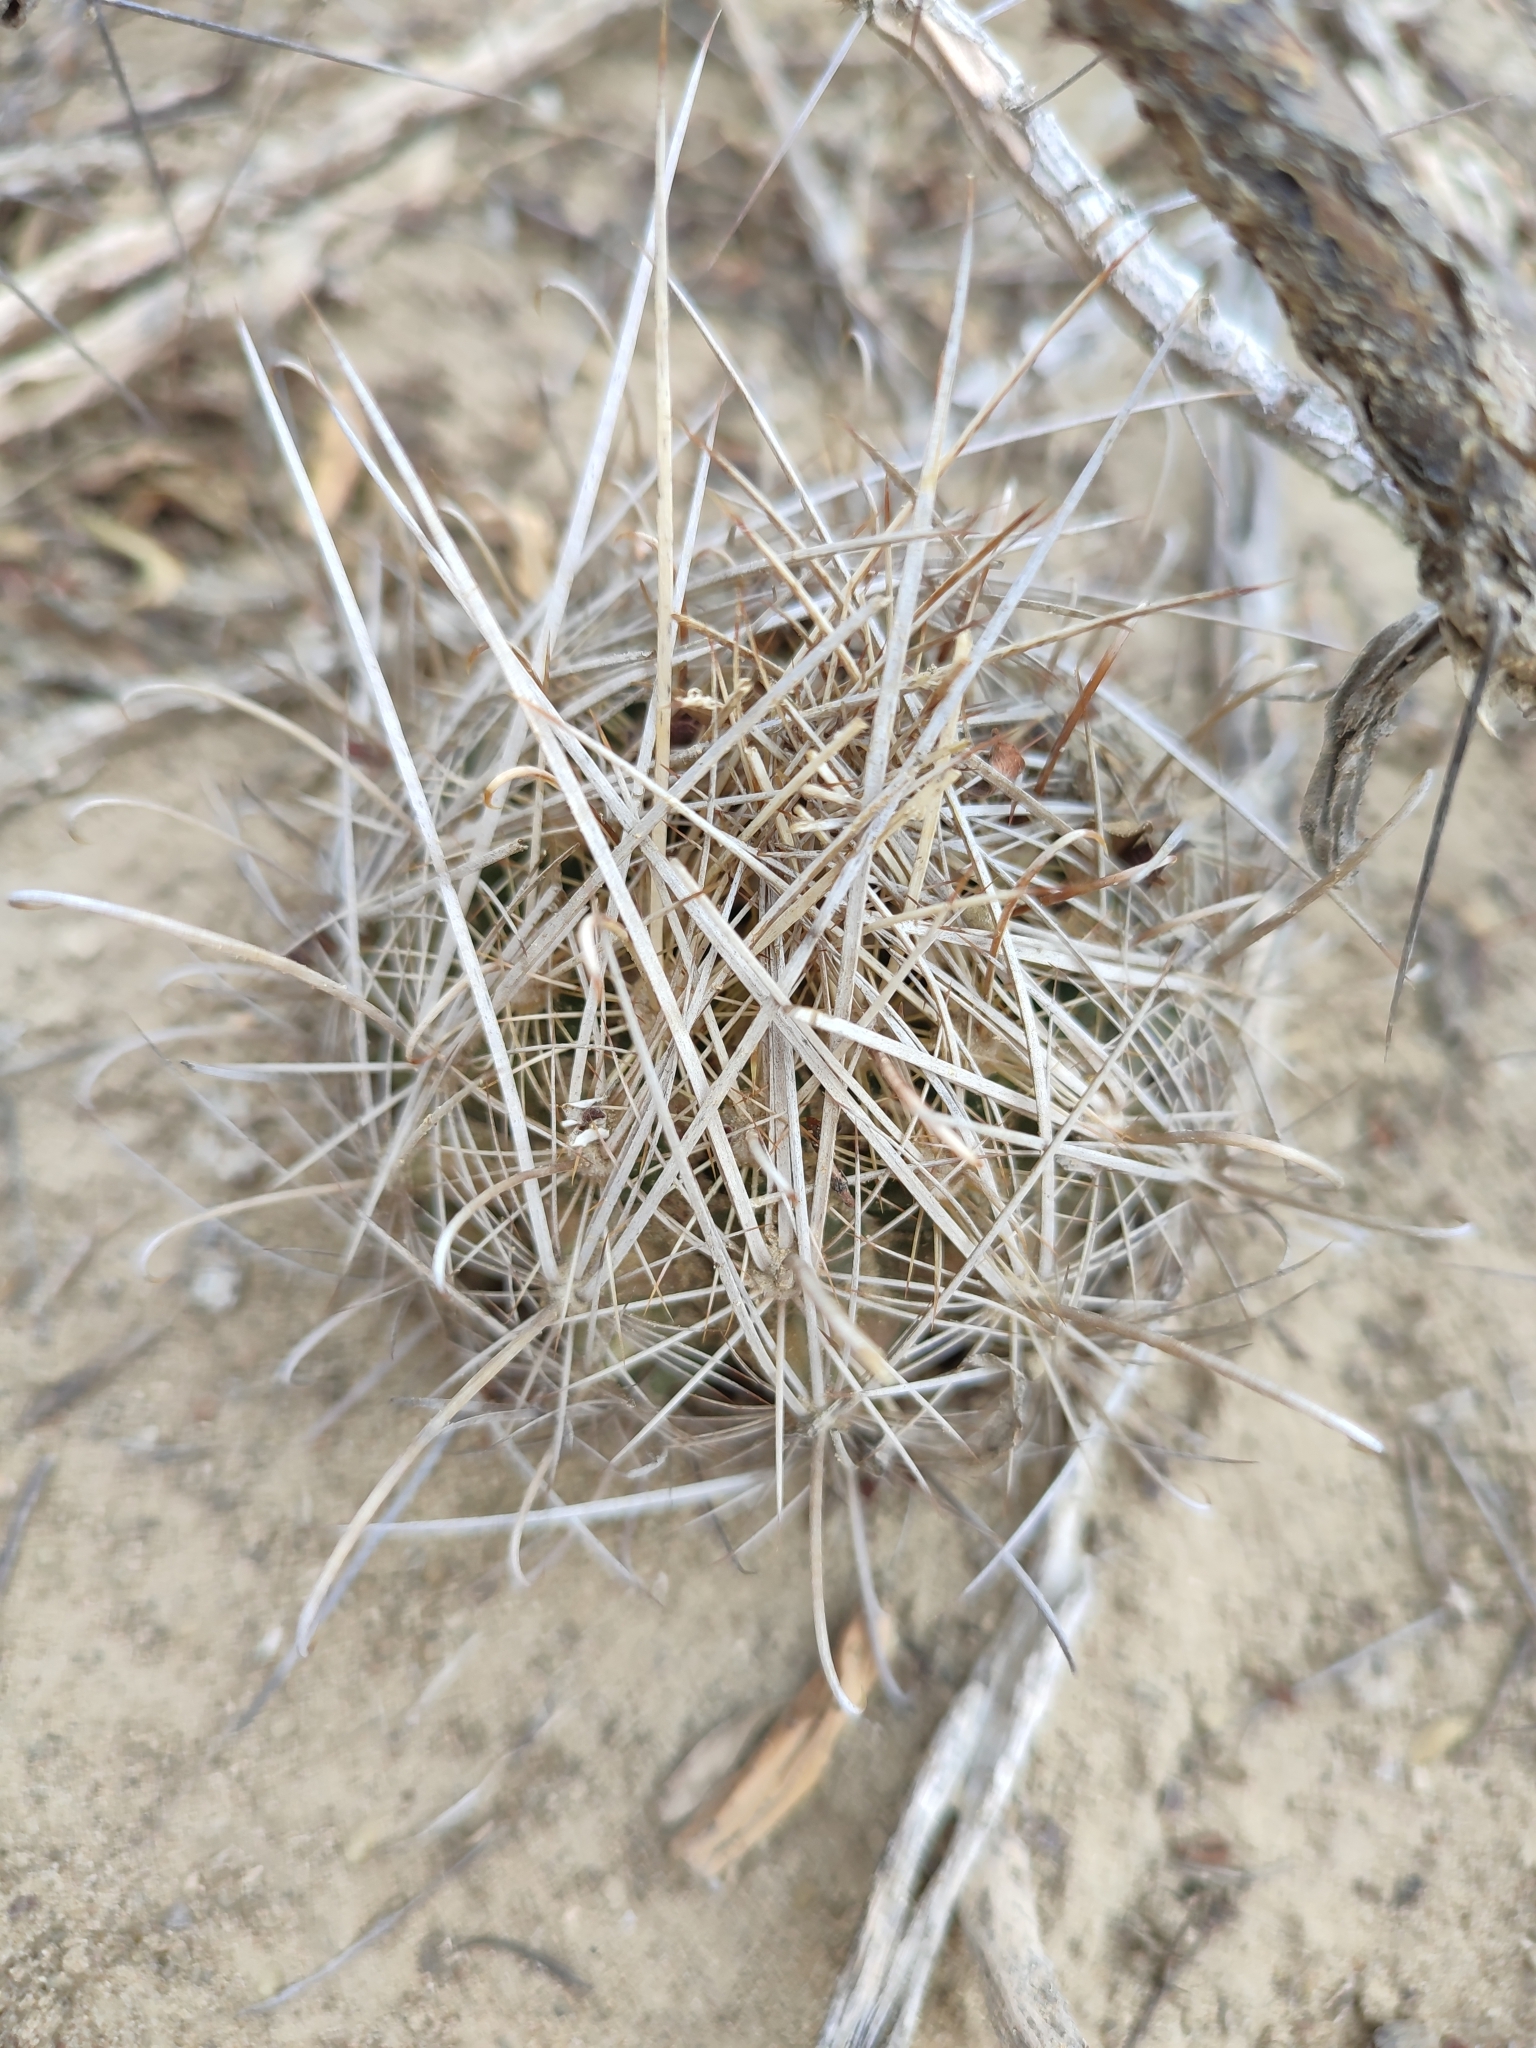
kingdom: Plantae
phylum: Tracheophyta
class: Magnoliopsida
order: Caryophyllales
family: Cactaceae
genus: Sclerocactus
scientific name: Sclerocactus scheerii
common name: Scheer's fish-hook cactus
